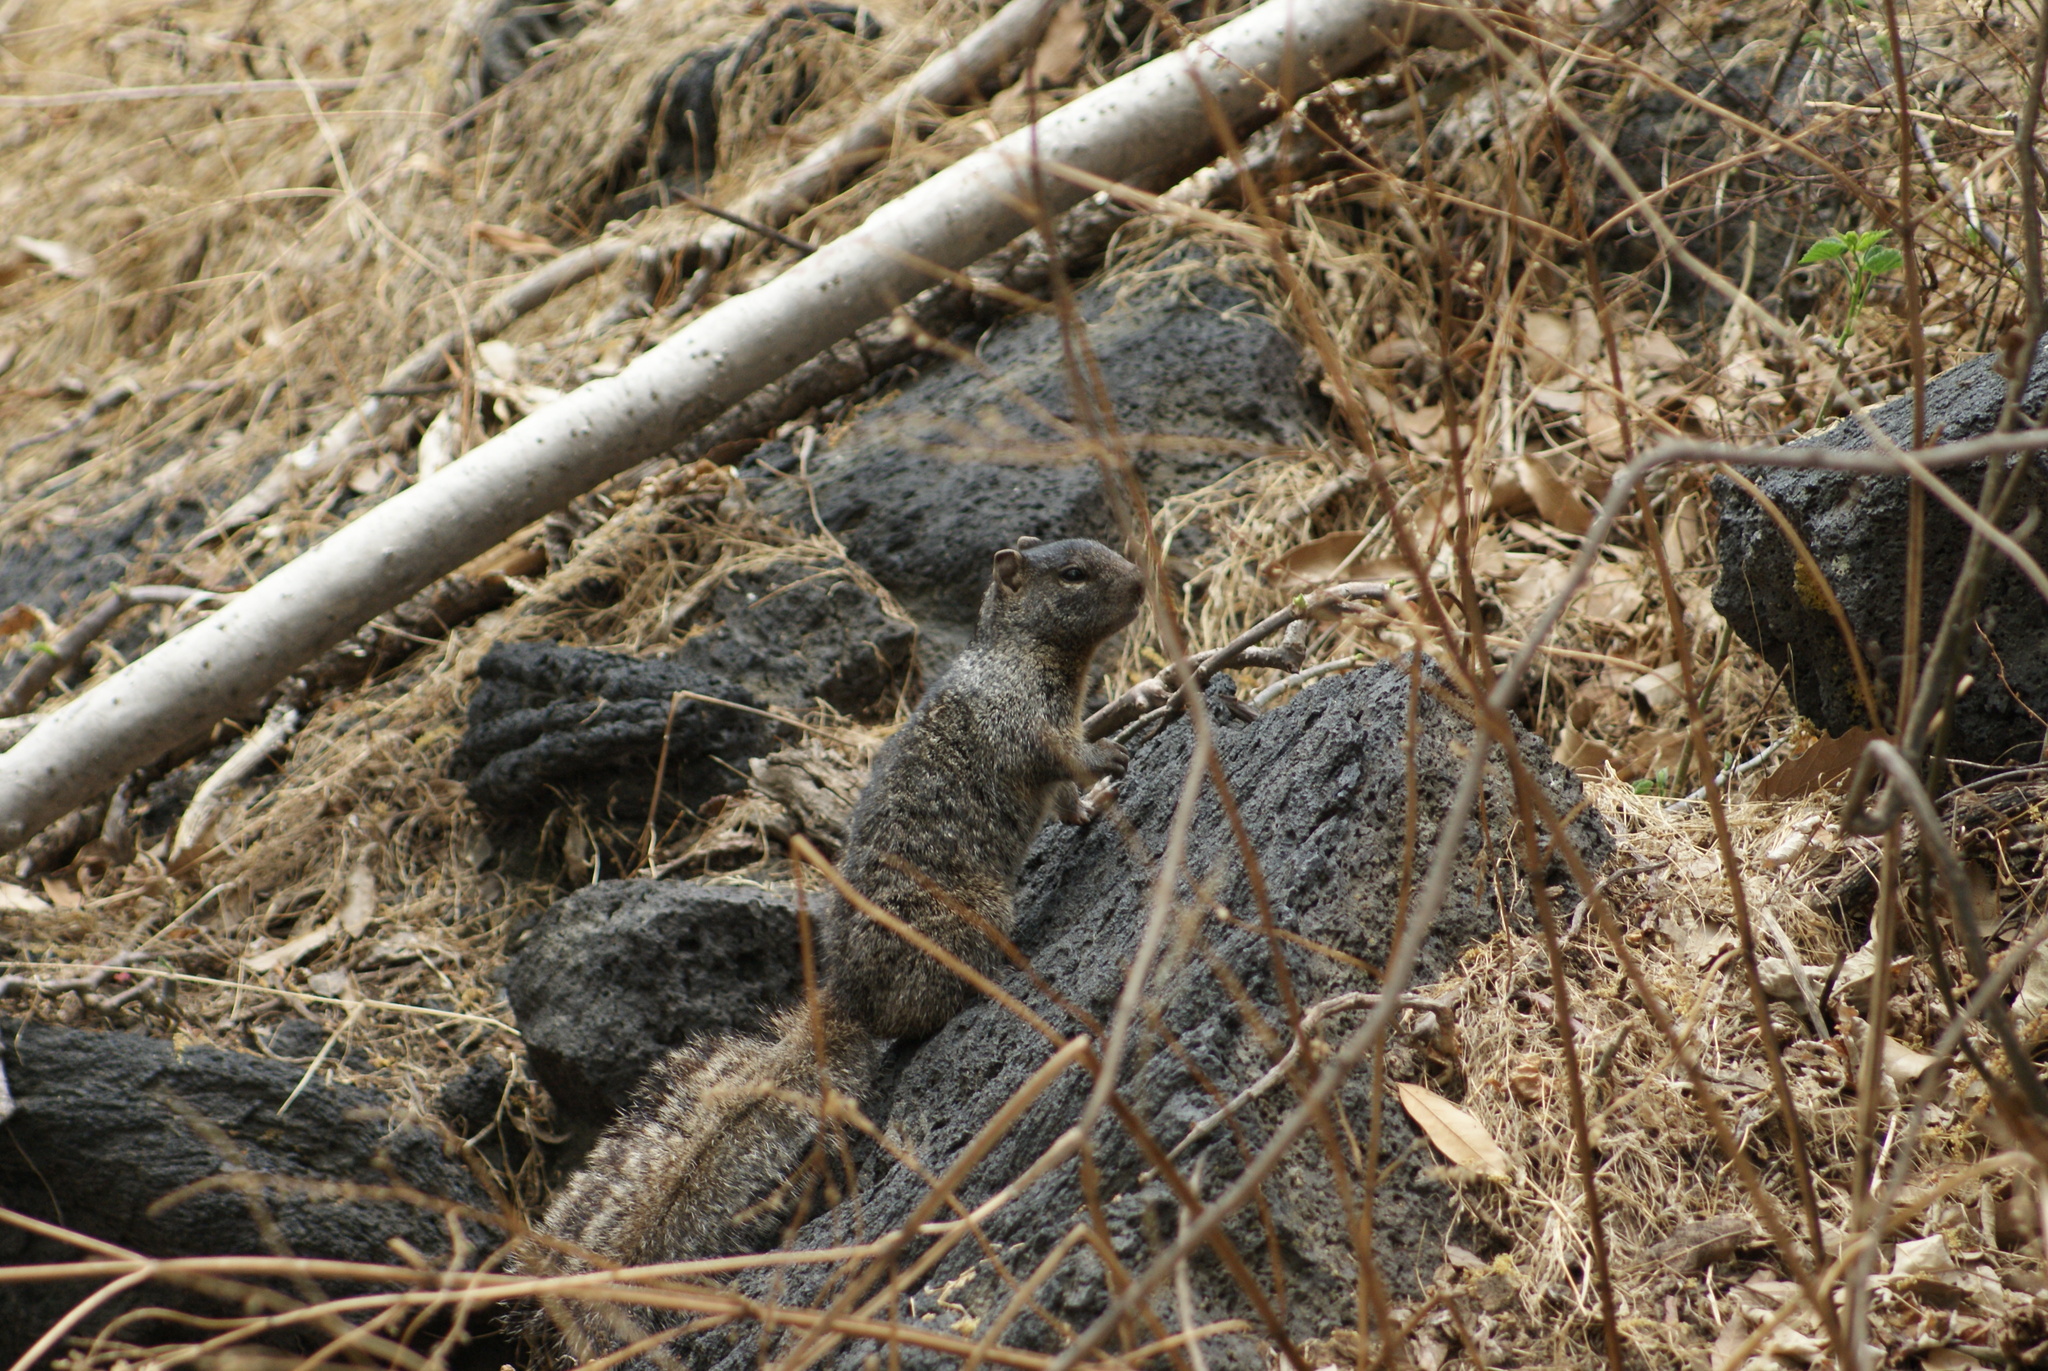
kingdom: Animalia
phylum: Chordata
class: Mammalia
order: Rodentia
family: Sciuridae
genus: Otospermophilus
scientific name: Otospermophilus variegatus
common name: Rock squirrel
